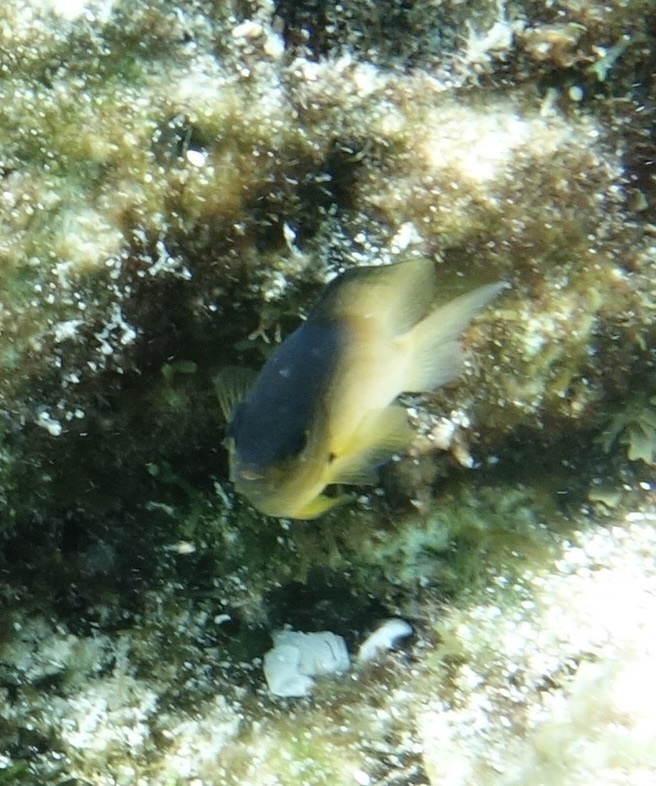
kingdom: Animalia
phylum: Chordata
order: Perciformes
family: Pomacentridae
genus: Stegastes
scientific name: Stegastes partitus
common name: Bicolor damselfish
